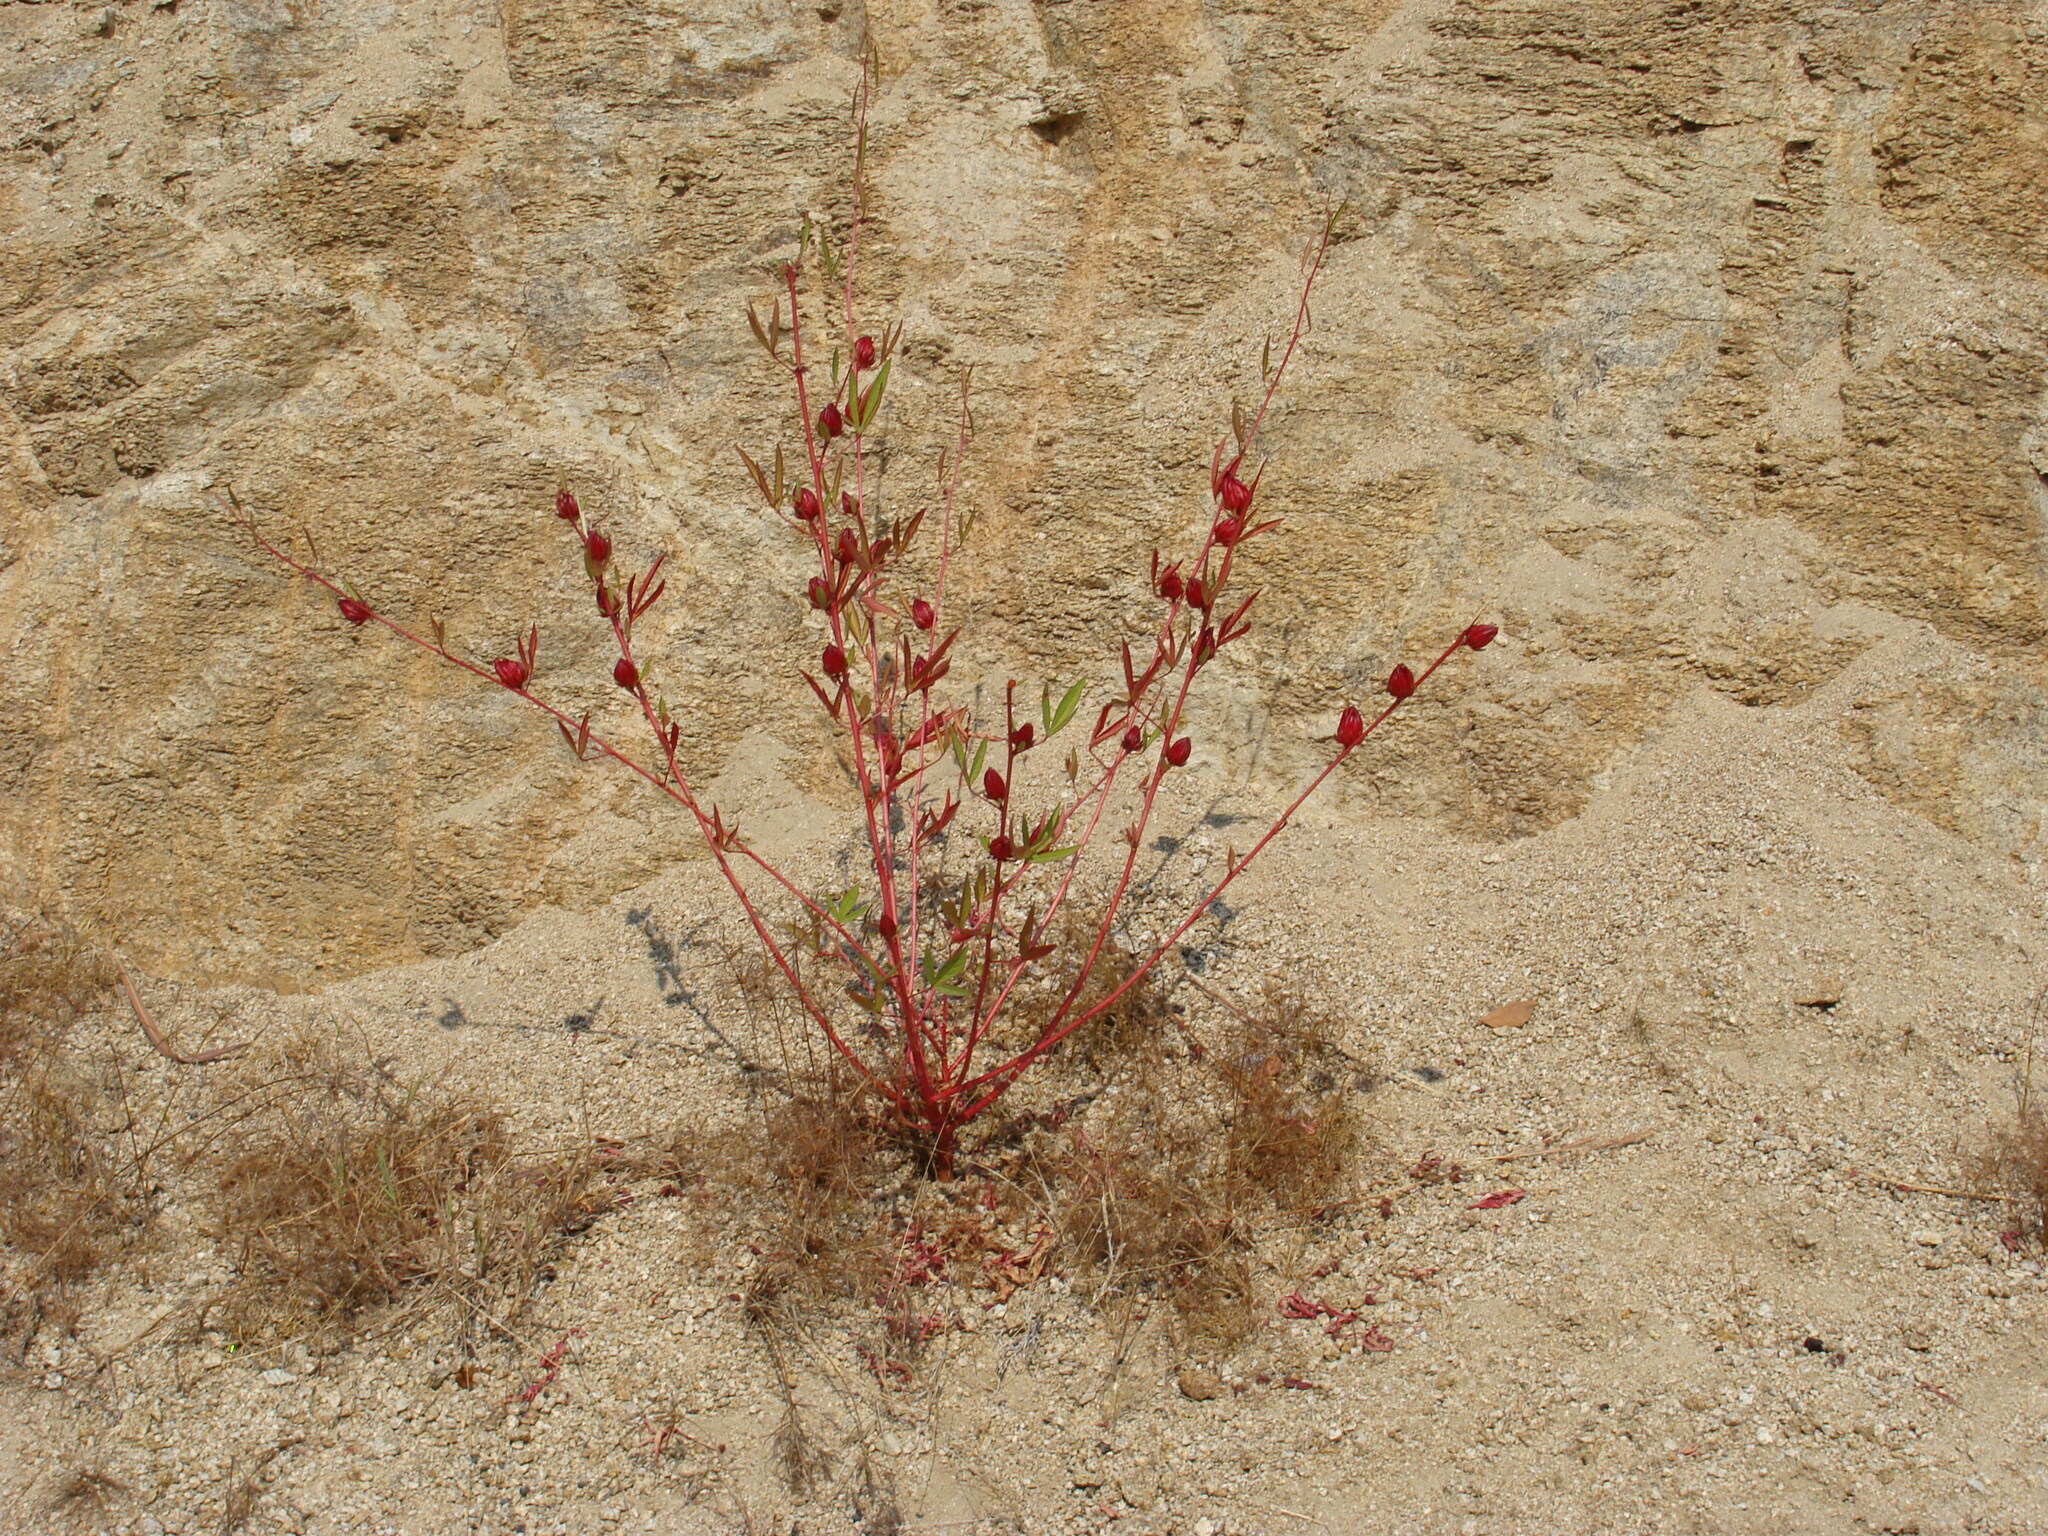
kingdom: Plantae
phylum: Tracheophyta
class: Magnoliopsida
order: Malvales
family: Malvaceae
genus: Hibiscus
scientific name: Hibiscus sabdariffa
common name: Roselle
